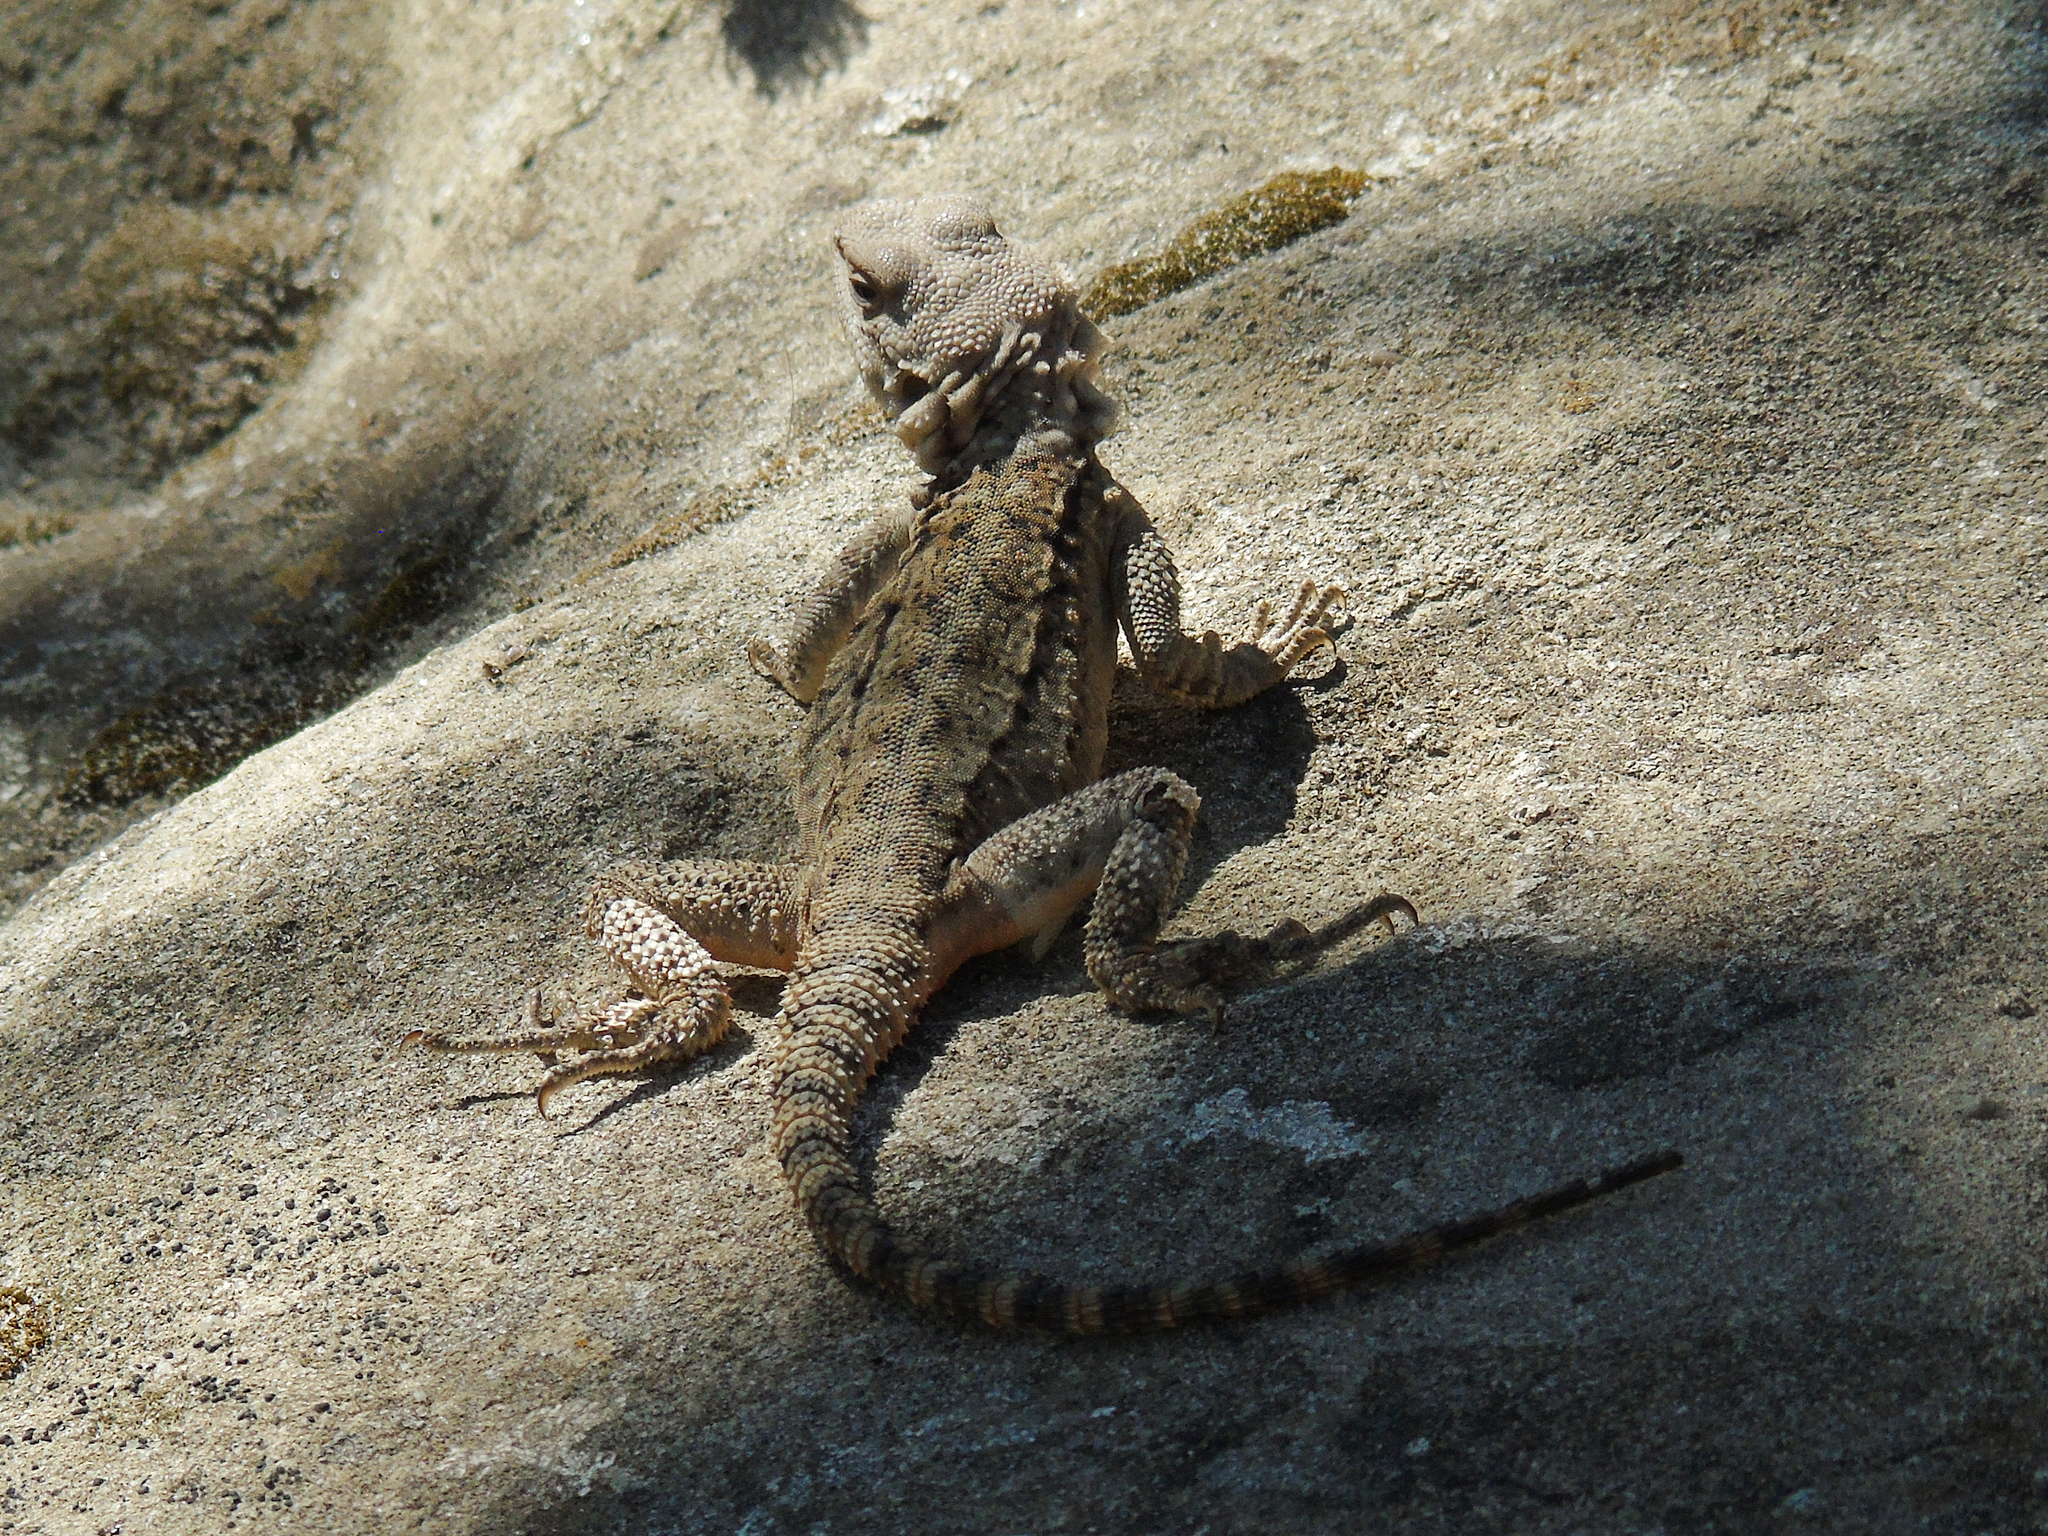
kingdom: Animalia
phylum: Chordata
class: Squamata
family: Agamidae
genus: Paralaudakia
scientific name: Paralaudakia caucasia
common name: Caucasian agama
